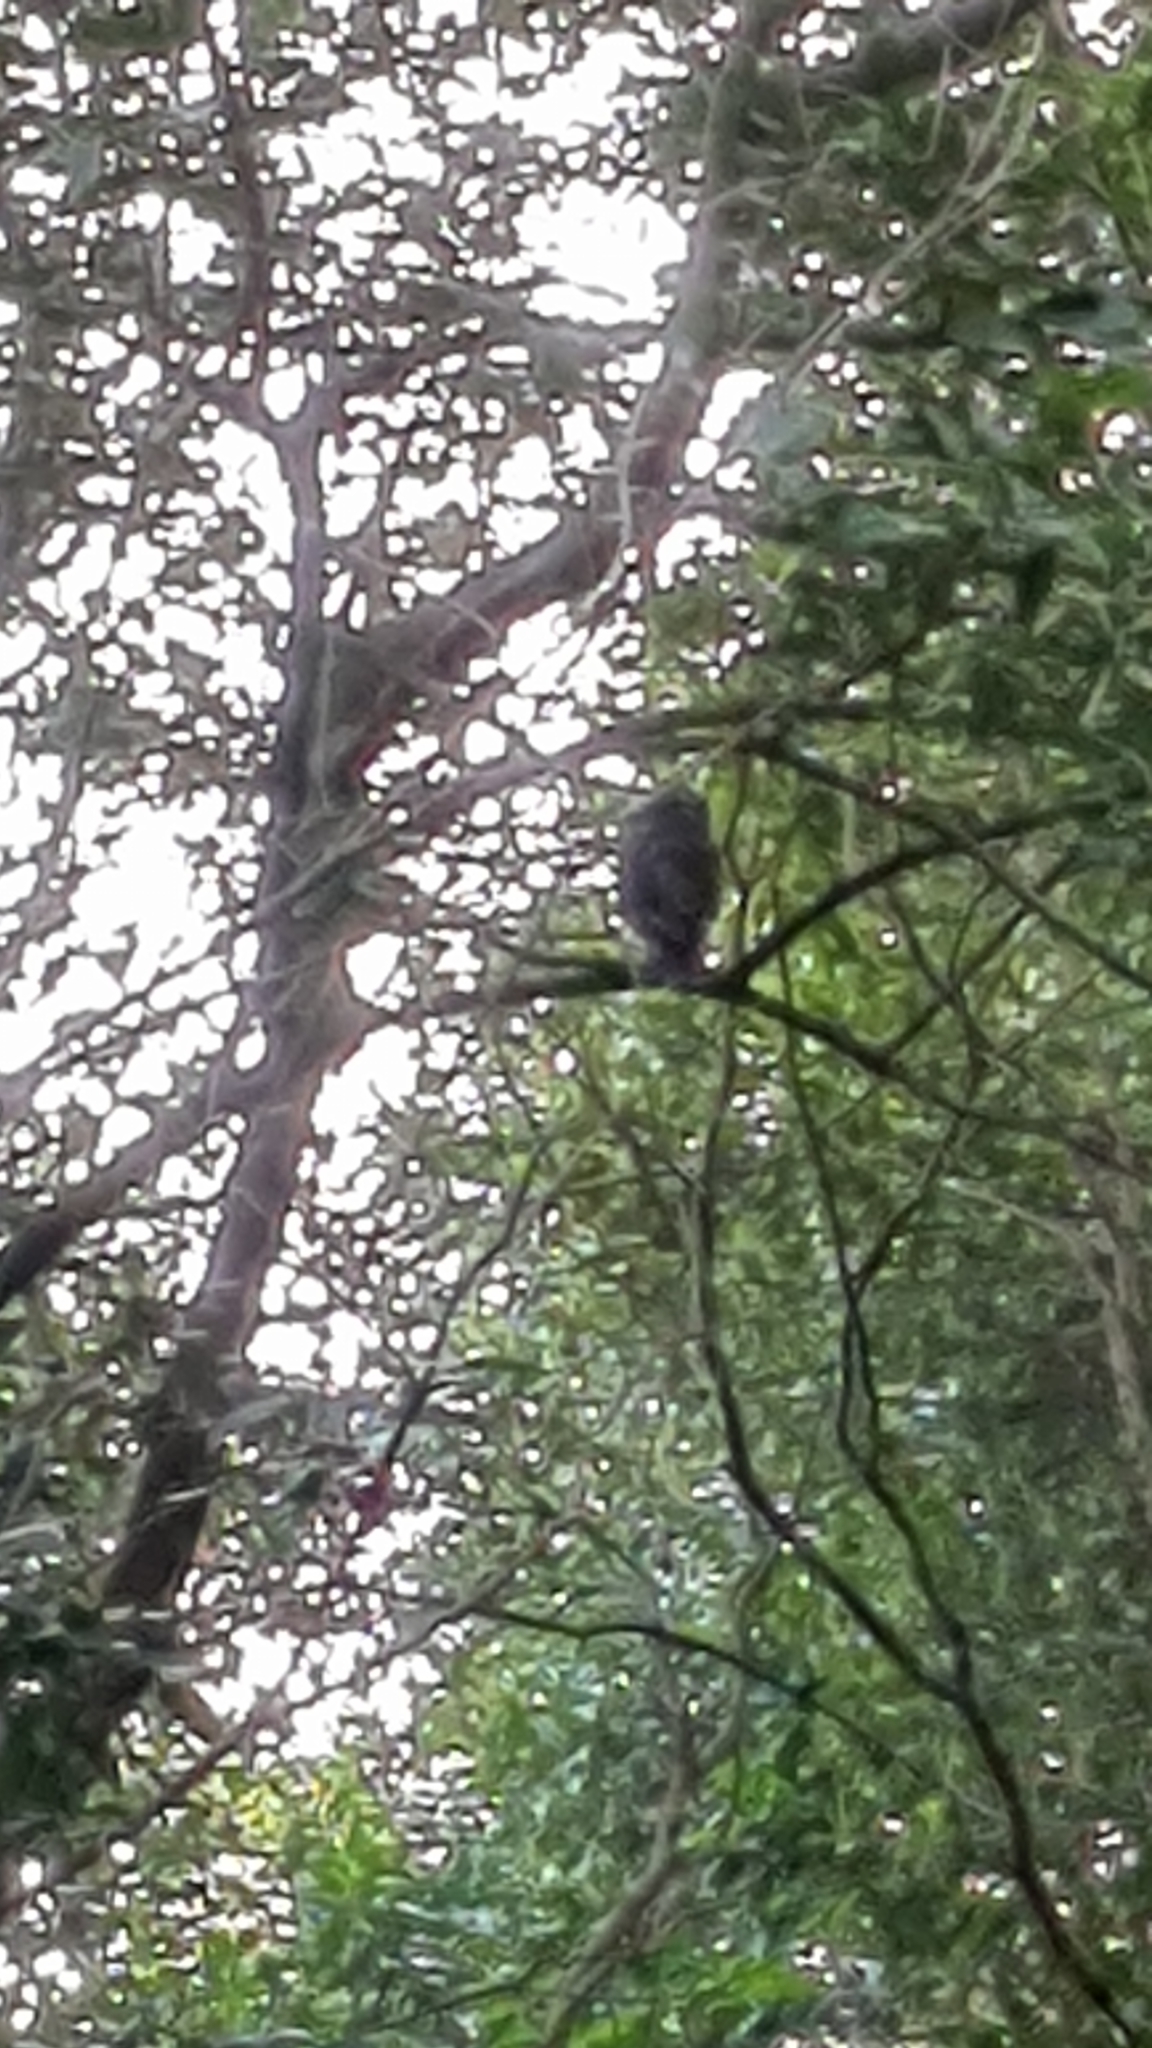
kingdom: Animalia
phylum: Chordata
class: Aves
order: Strigiformes
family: Strigidae
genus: Ninox
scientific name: Ninox boobook
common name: Southern boobook
